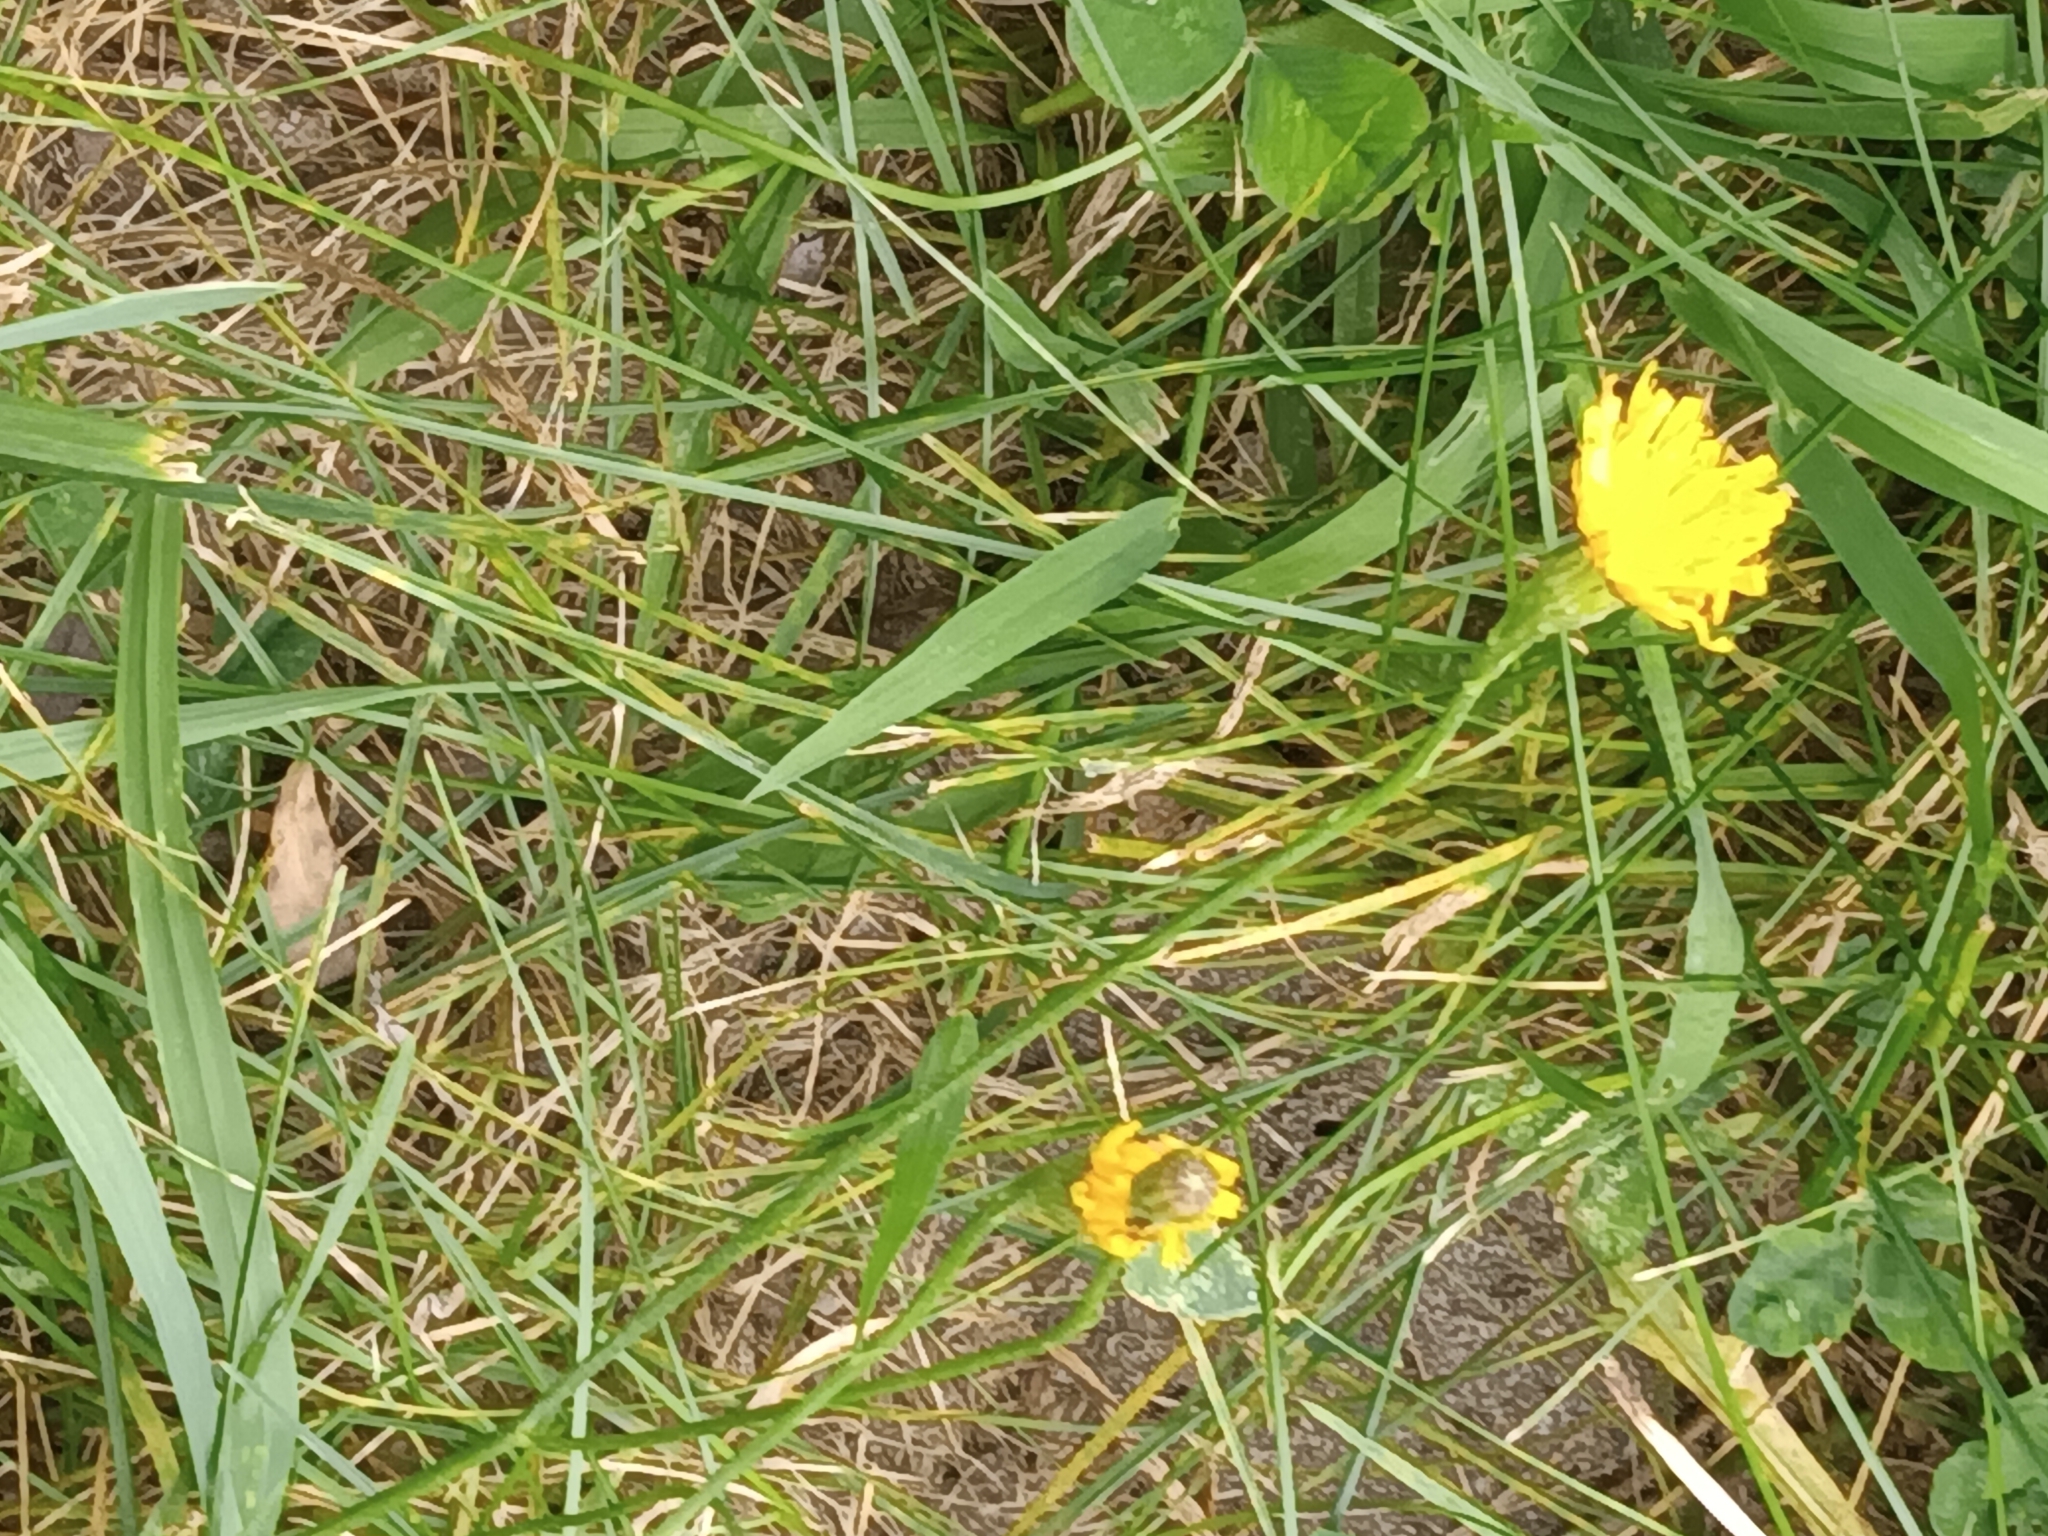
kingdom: Plantae
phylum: Tracheophyta
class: Magnoliopsida
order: Asterales
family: Asteraceae
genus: Scorzoneroides
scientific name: Scorzoneroides autumnalis
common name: Autumn hawkbit
